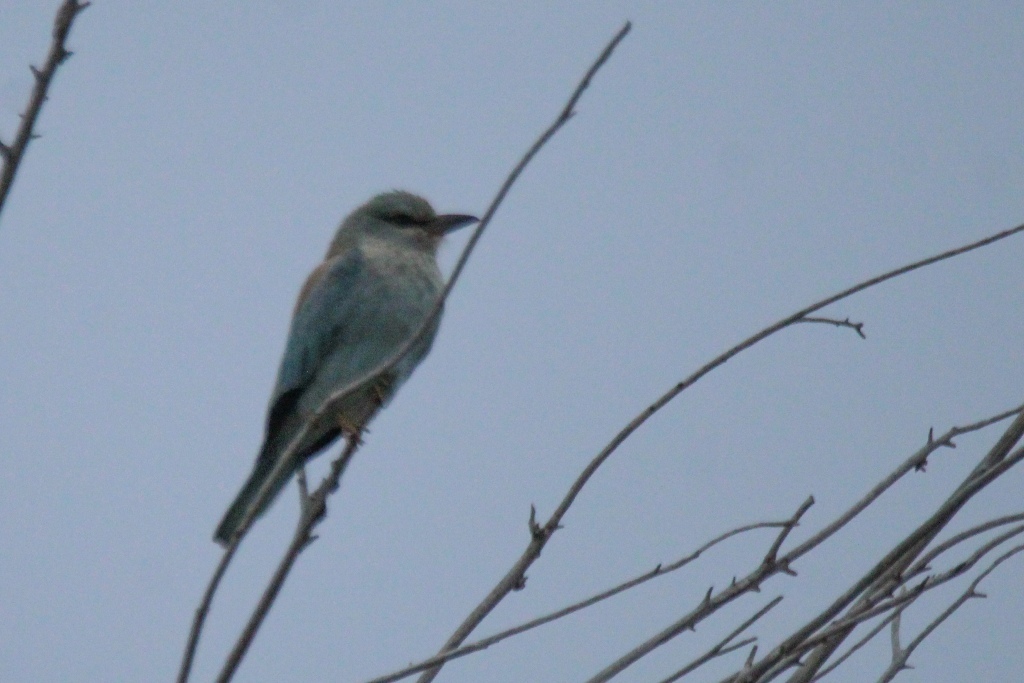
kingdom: Animalia
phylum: Chordata
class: Aves
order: Coraciiformes
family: Coraciidae
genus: Coracias
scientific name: Coracias garrulus
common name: European roller
